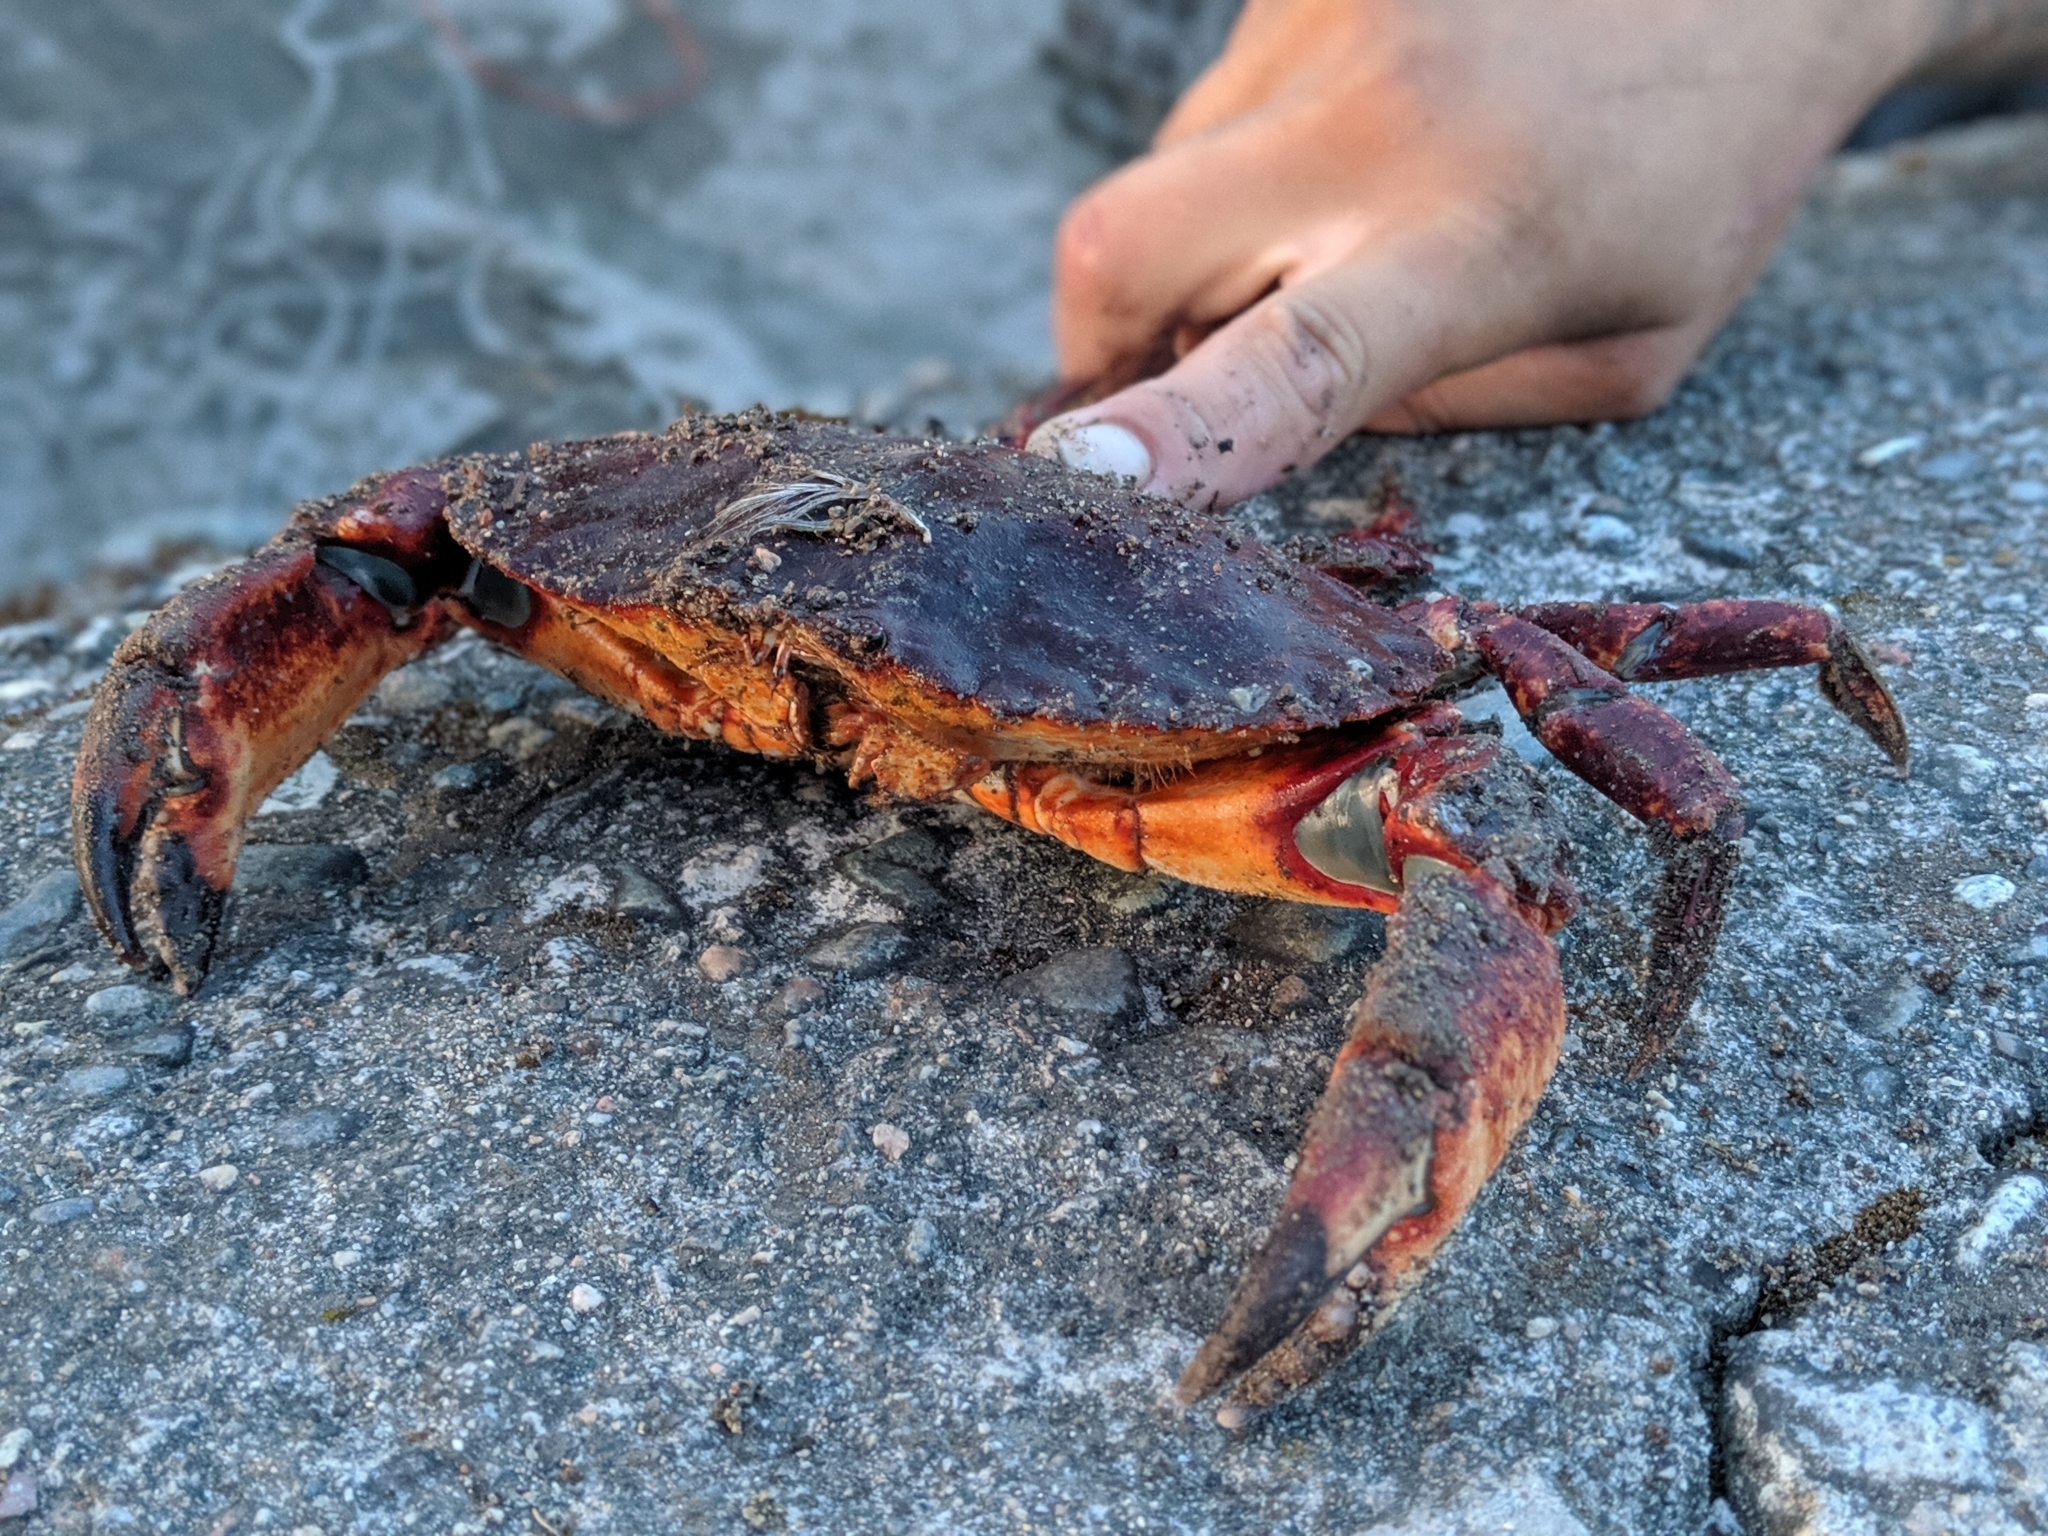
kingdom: Animalia
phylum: Arthropoda
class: Malacostraca
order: Decapoda
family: Cancridae
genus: Cancer
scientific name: Cancer productus
